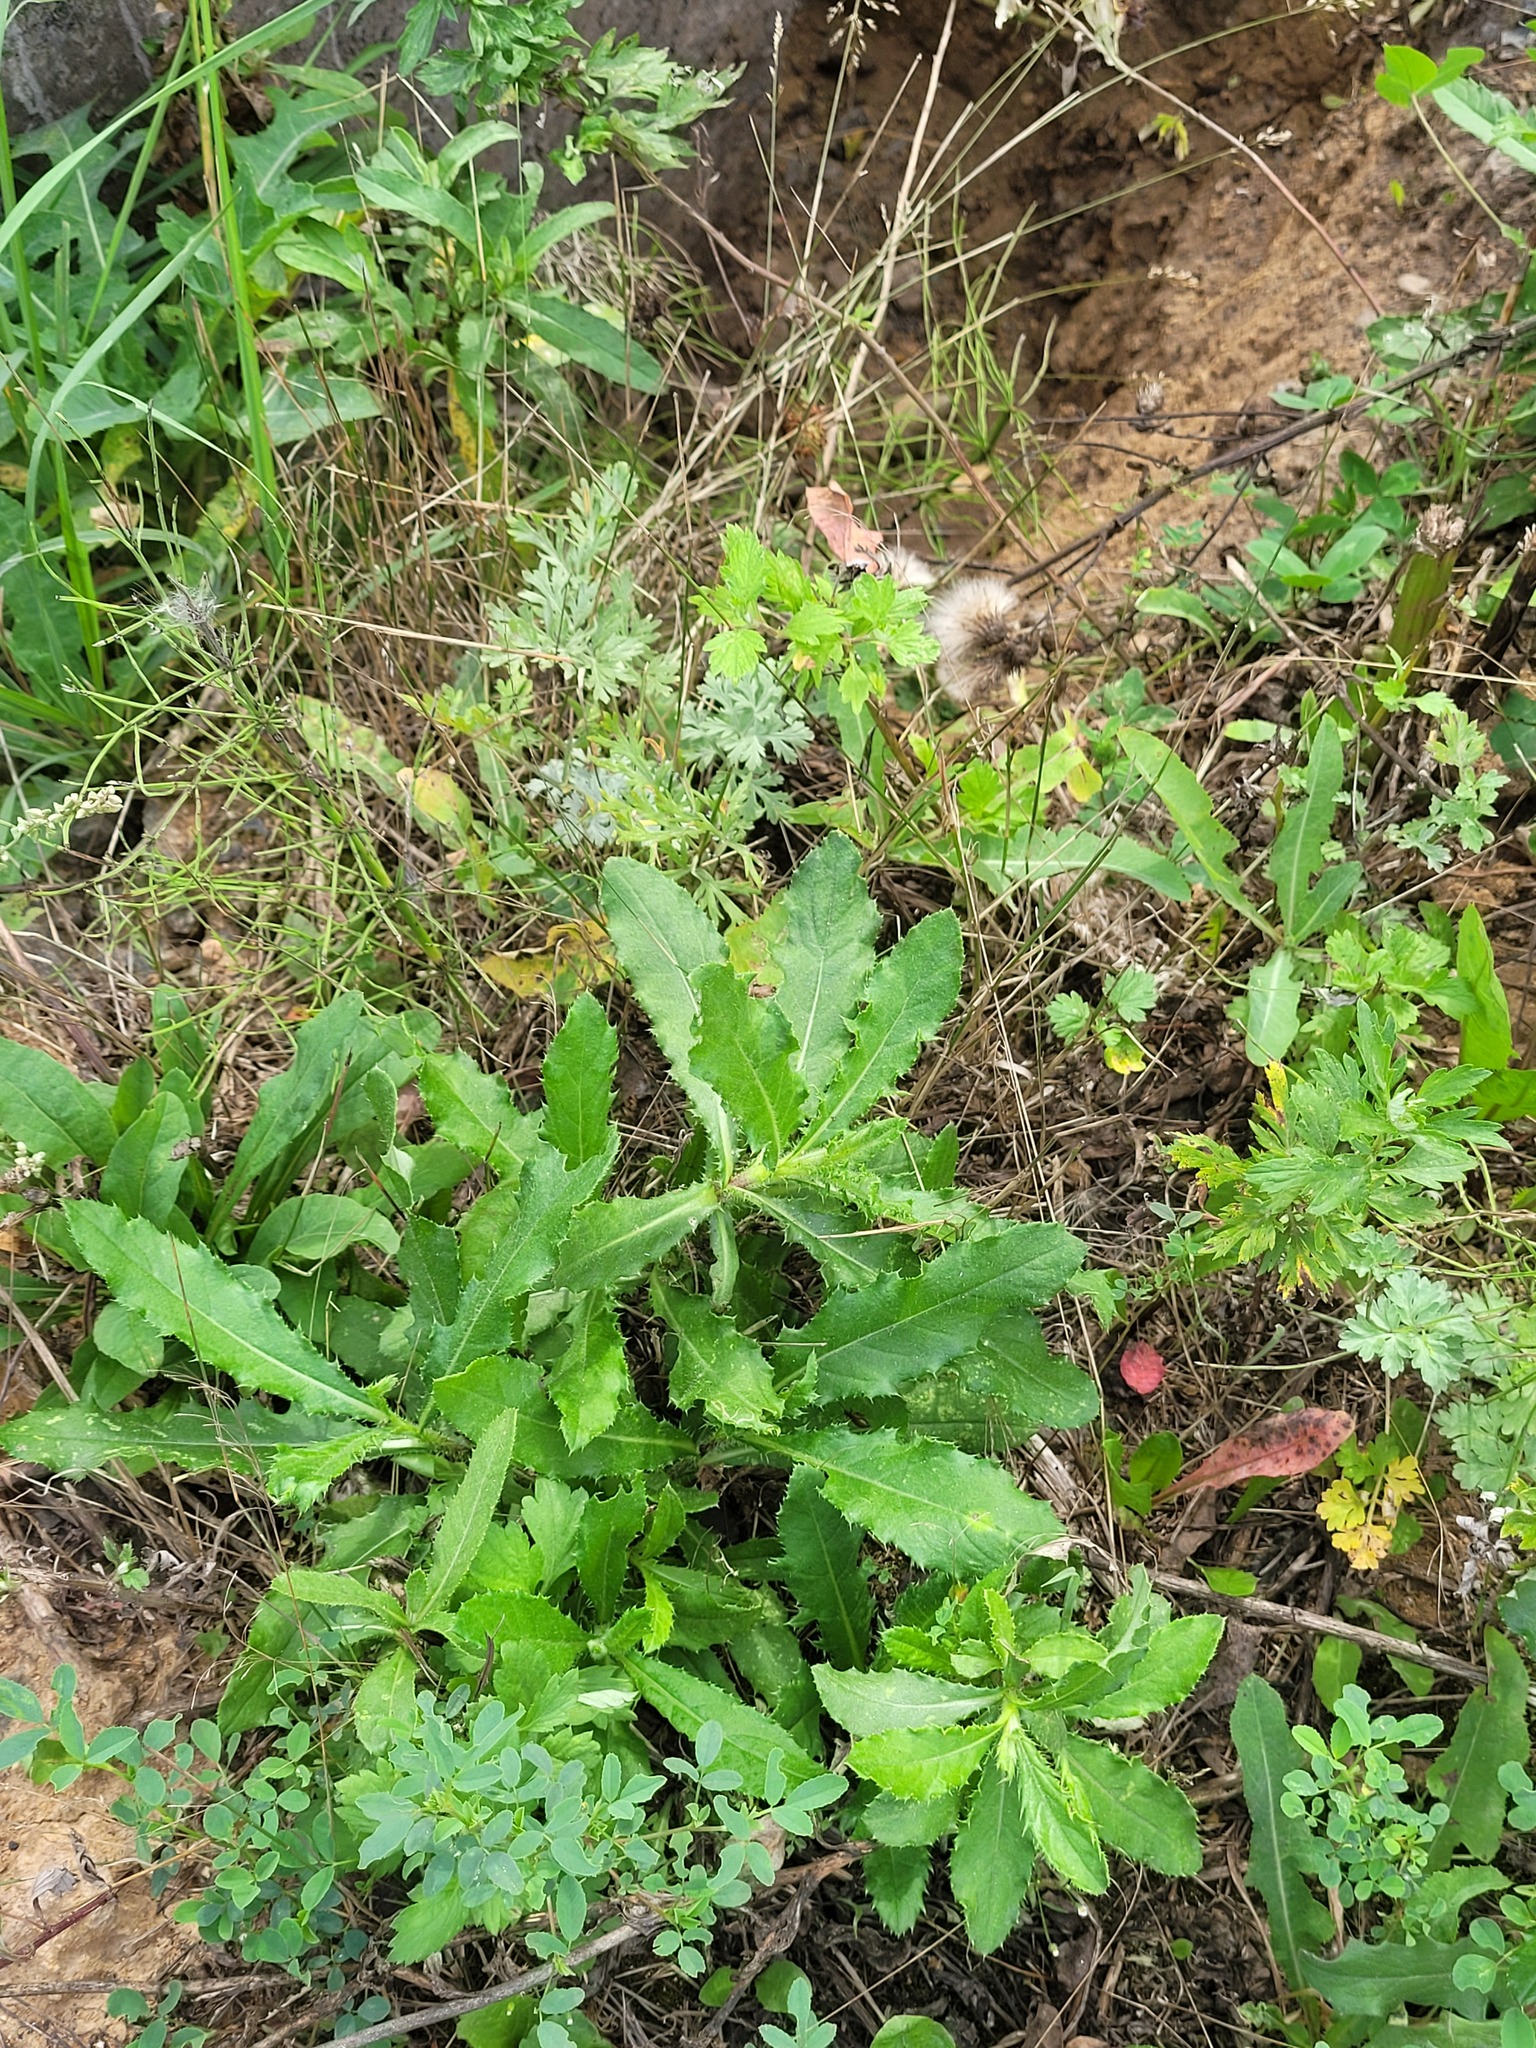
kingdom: Plantae
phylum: Tracheophyta
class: Magnoliopsida
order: Asterales
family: Asteraceae
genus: Cirsium
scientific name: Cirsium arvense
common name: Creeping thistle
